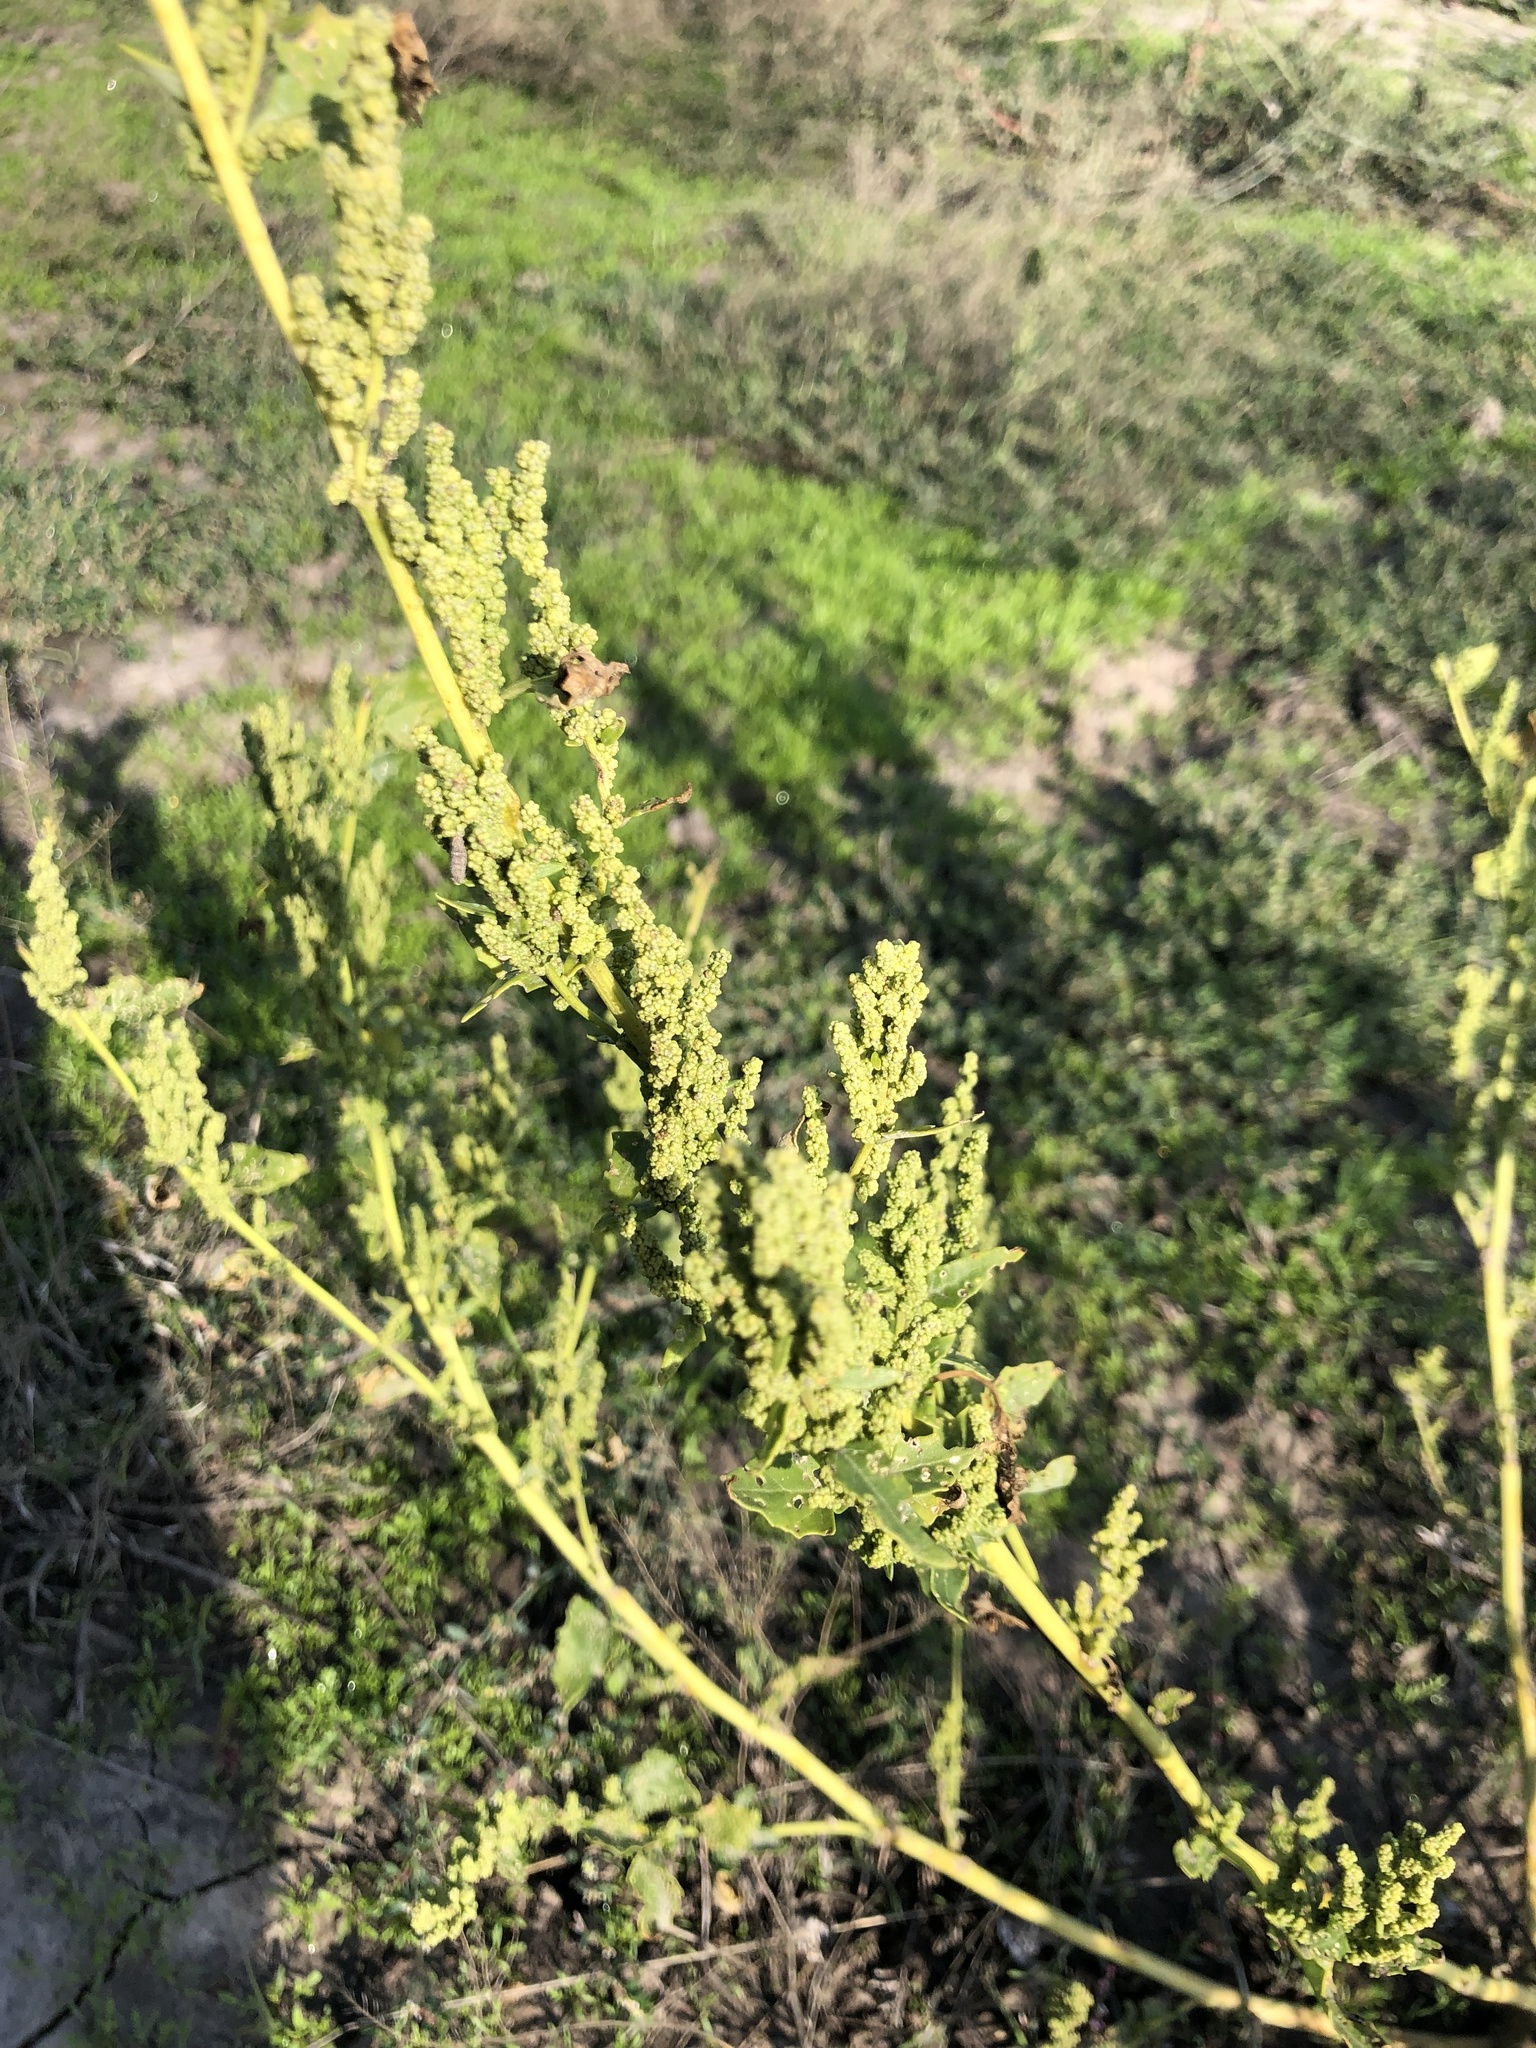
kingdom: Plantae
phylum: Tracheophyta
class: Magnoliopsida
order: Caryophyllales
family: Amaranthaceae
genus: Oxybasis
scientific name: Oxybasis urbica
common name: City goosefoot
